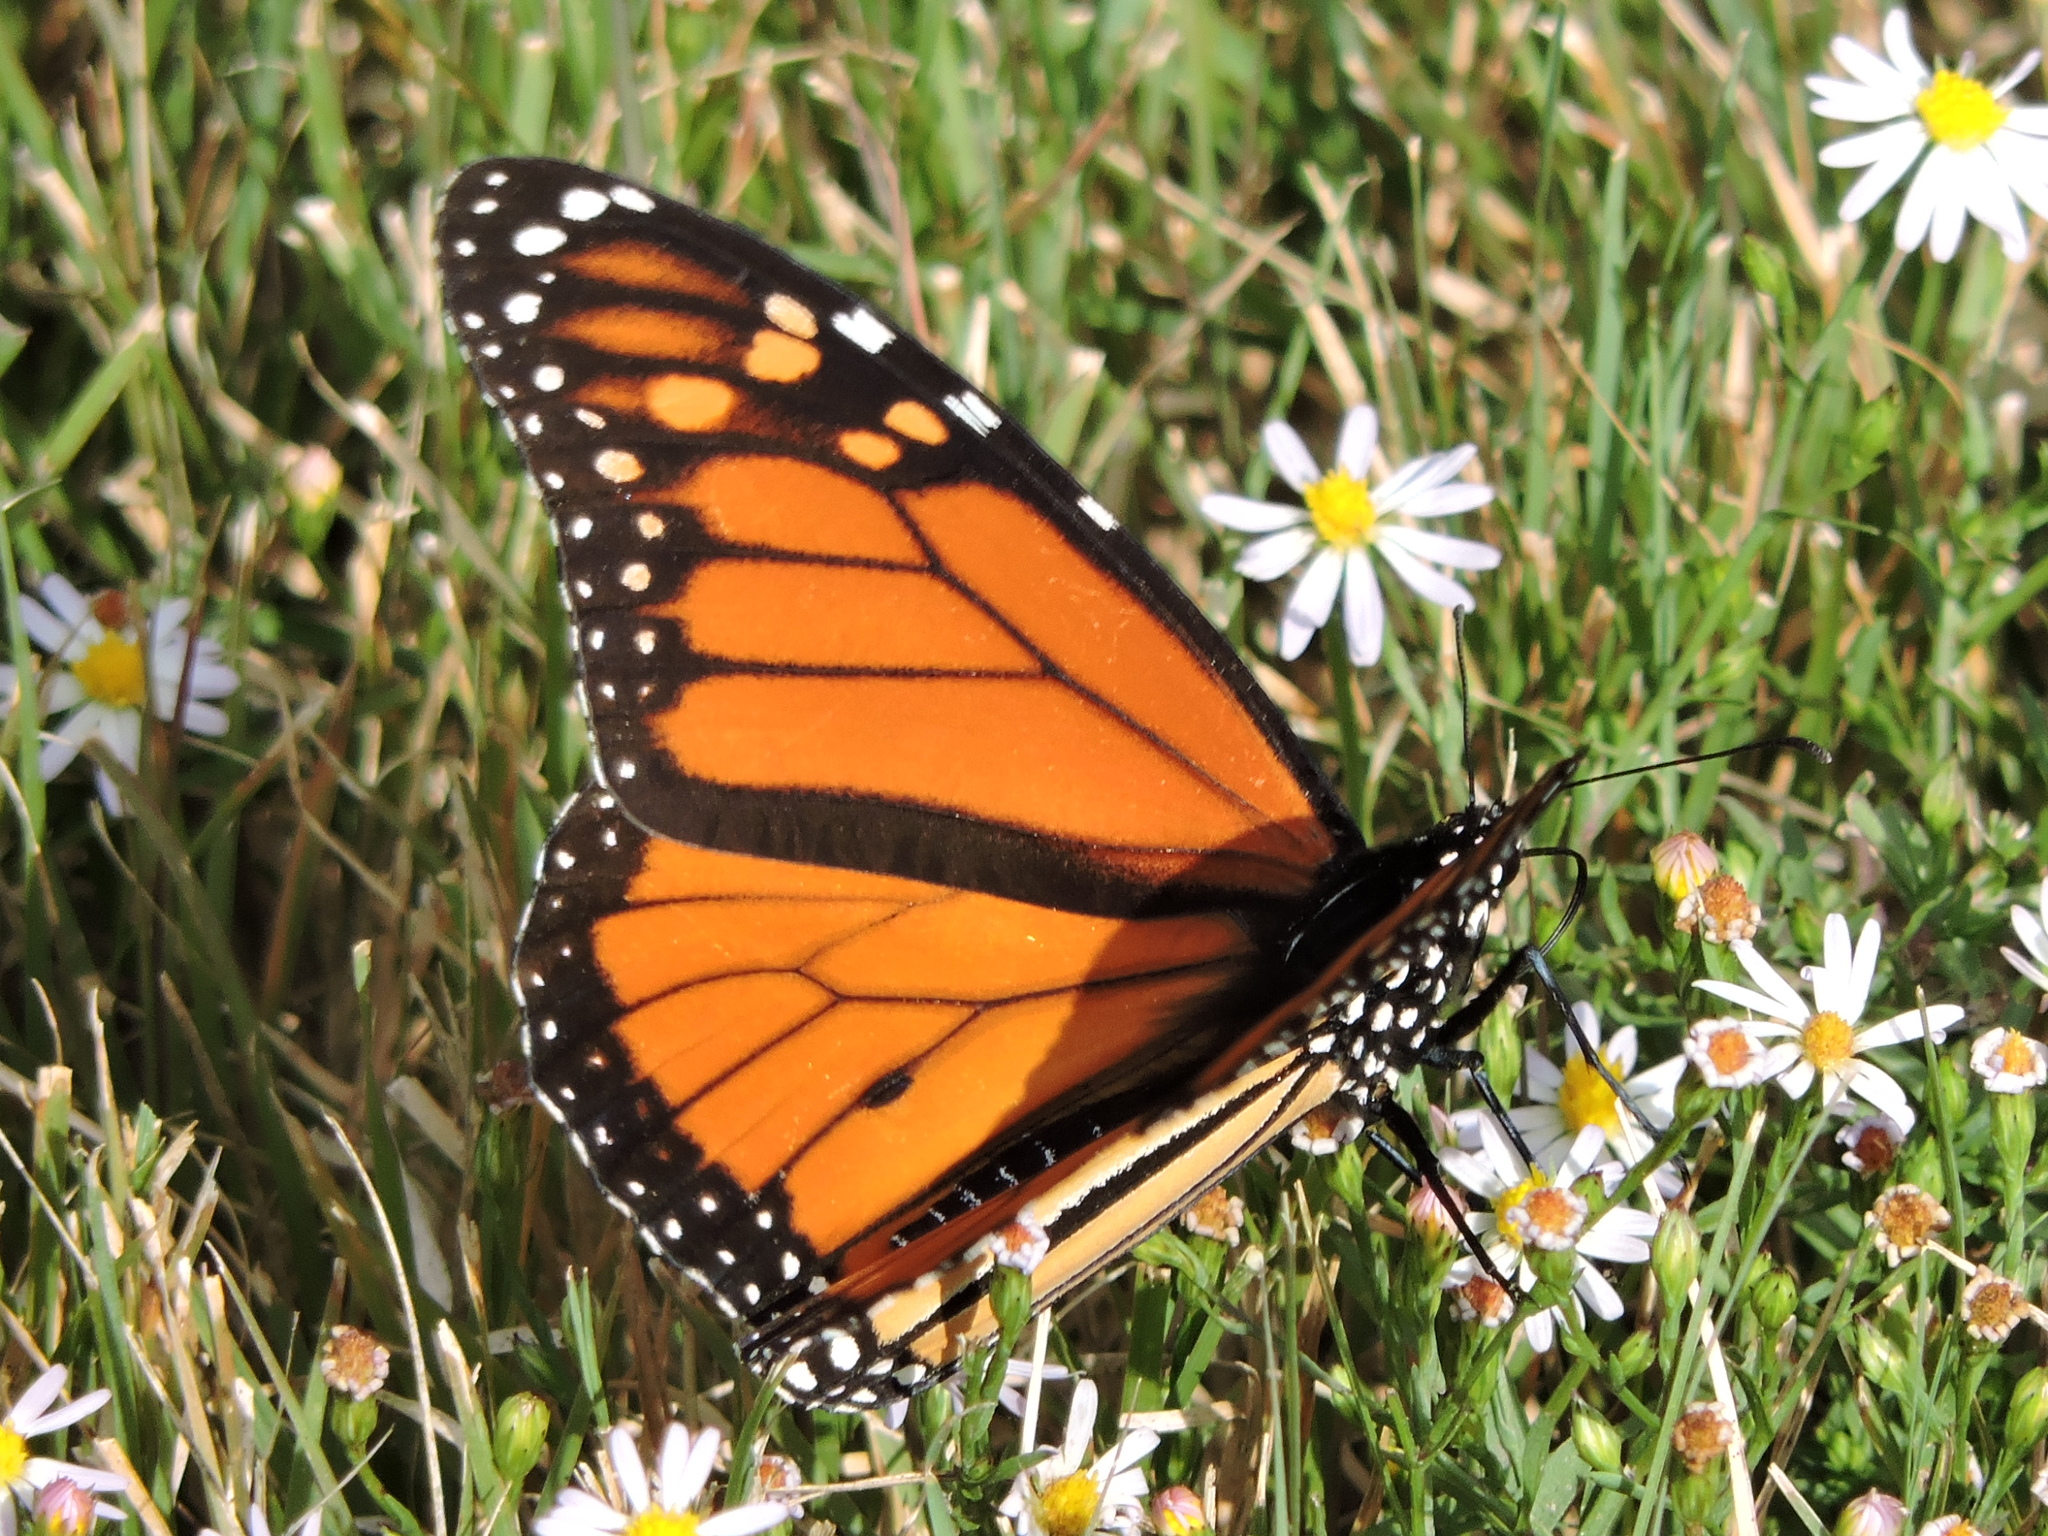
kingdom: Animalia
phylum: Arthropoda
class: Insecta
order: Lepidoptera
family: Nymphalidae
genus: Danaus
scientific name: Danaus plexippus
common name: Monarch
